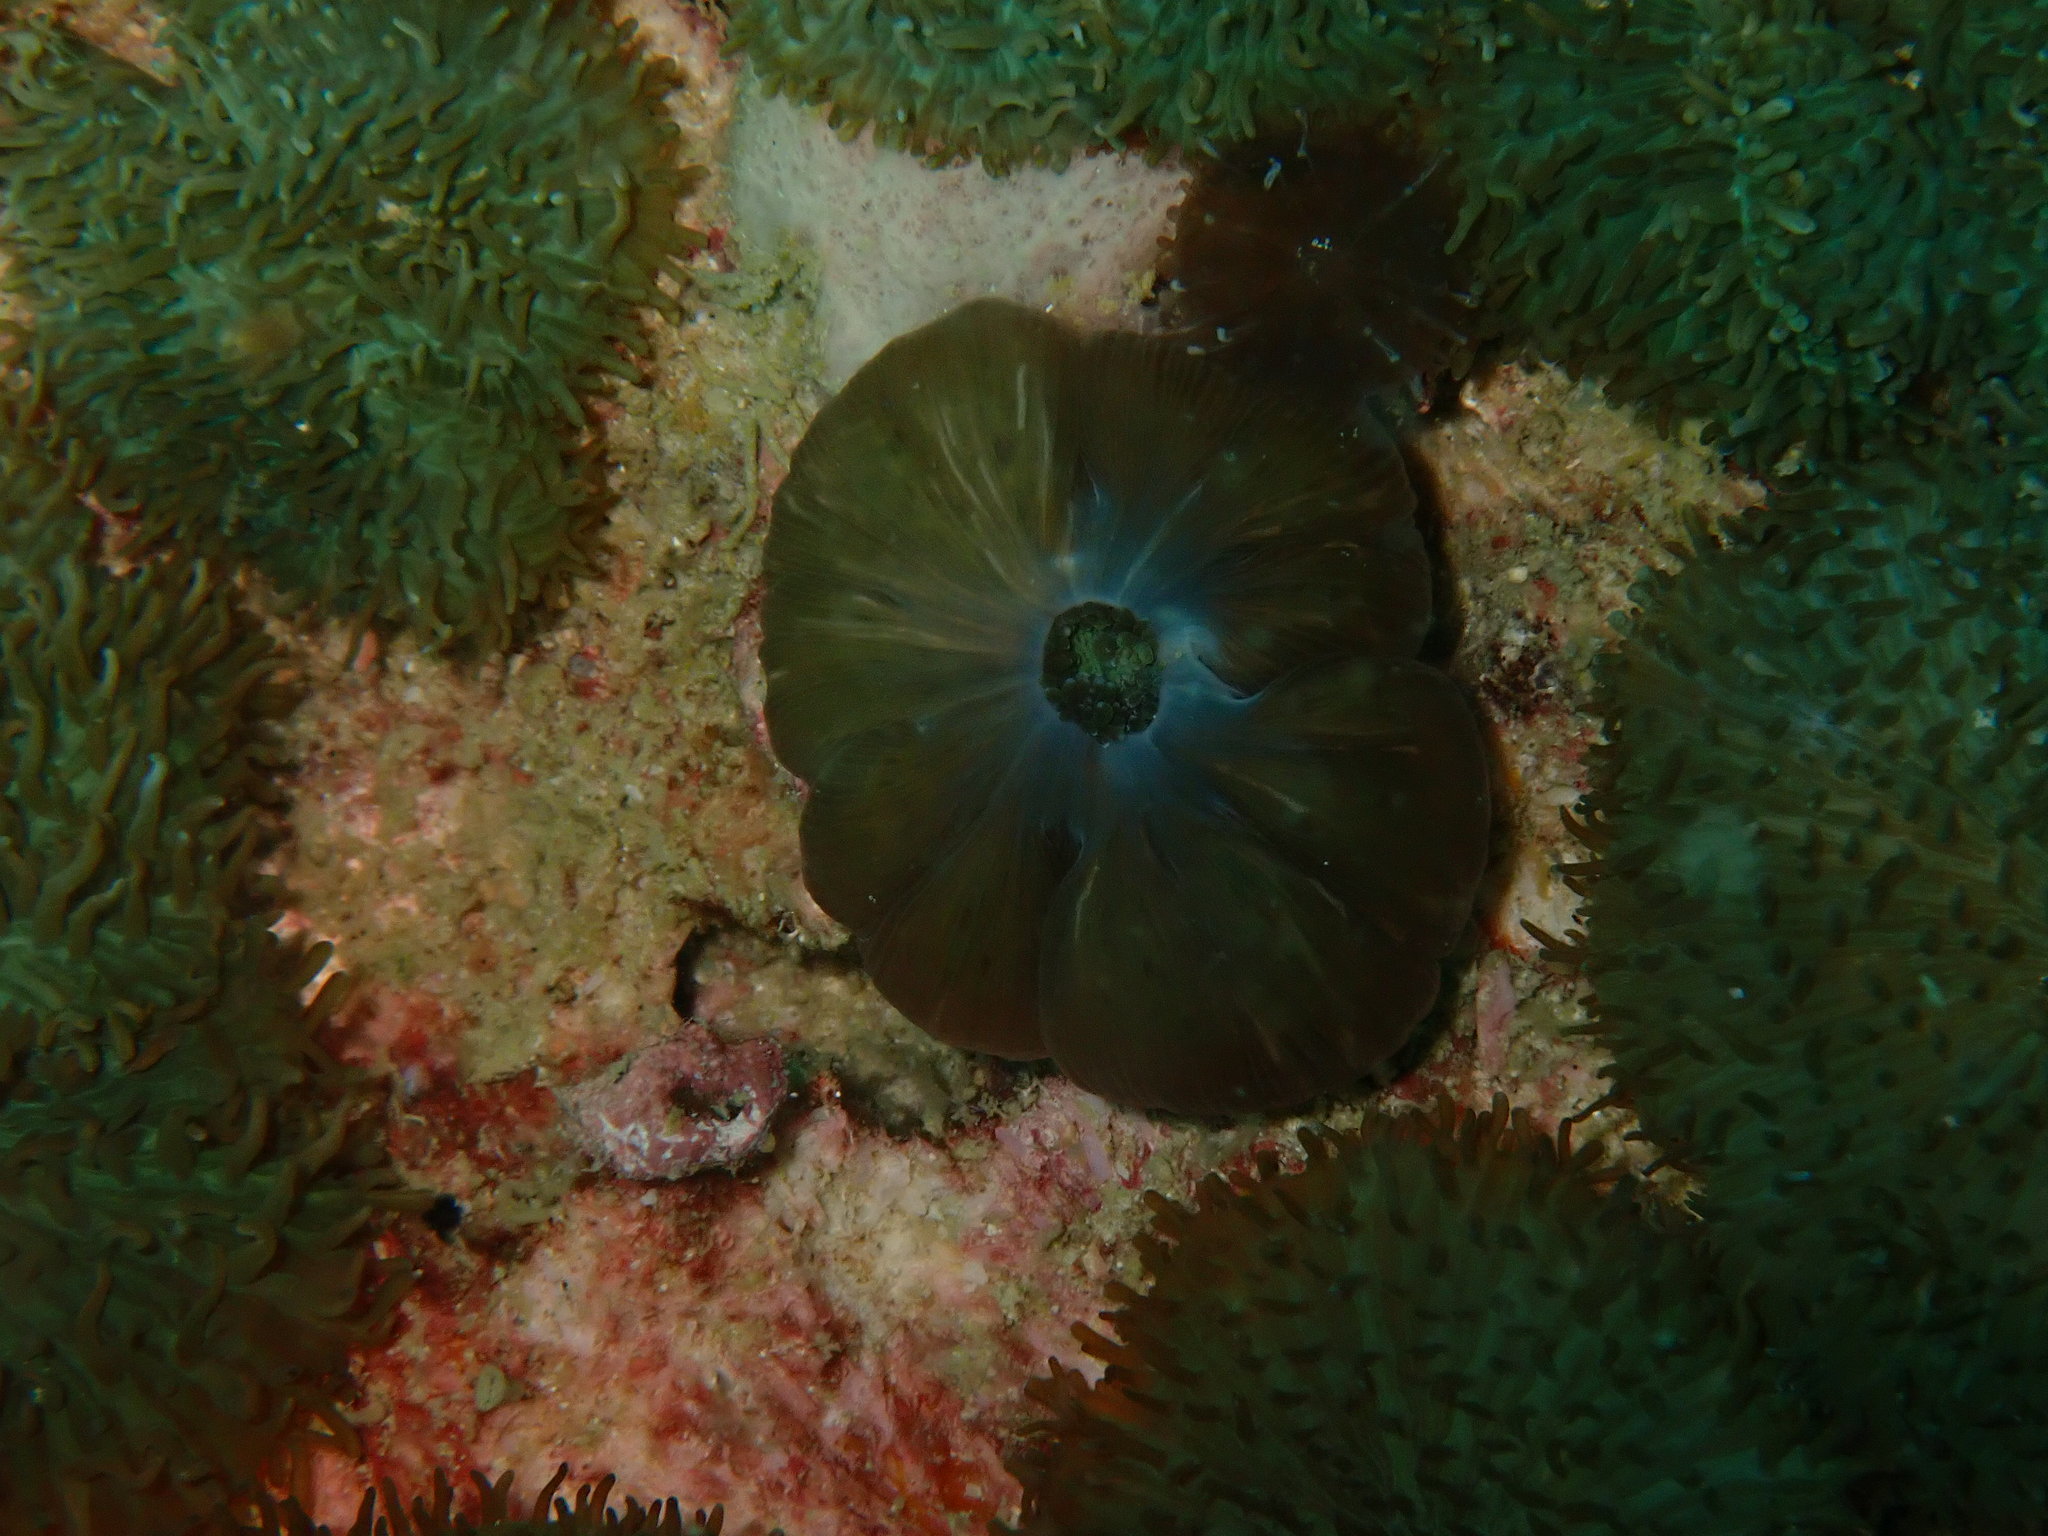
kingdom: Animalia
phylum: Cnidaria
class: Anthozoa
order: Corallimorpharia
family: Discosomidae
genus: Rhodactis
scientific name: Rhodactis rhodostoma
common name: Red-mouth mushroom anemone
